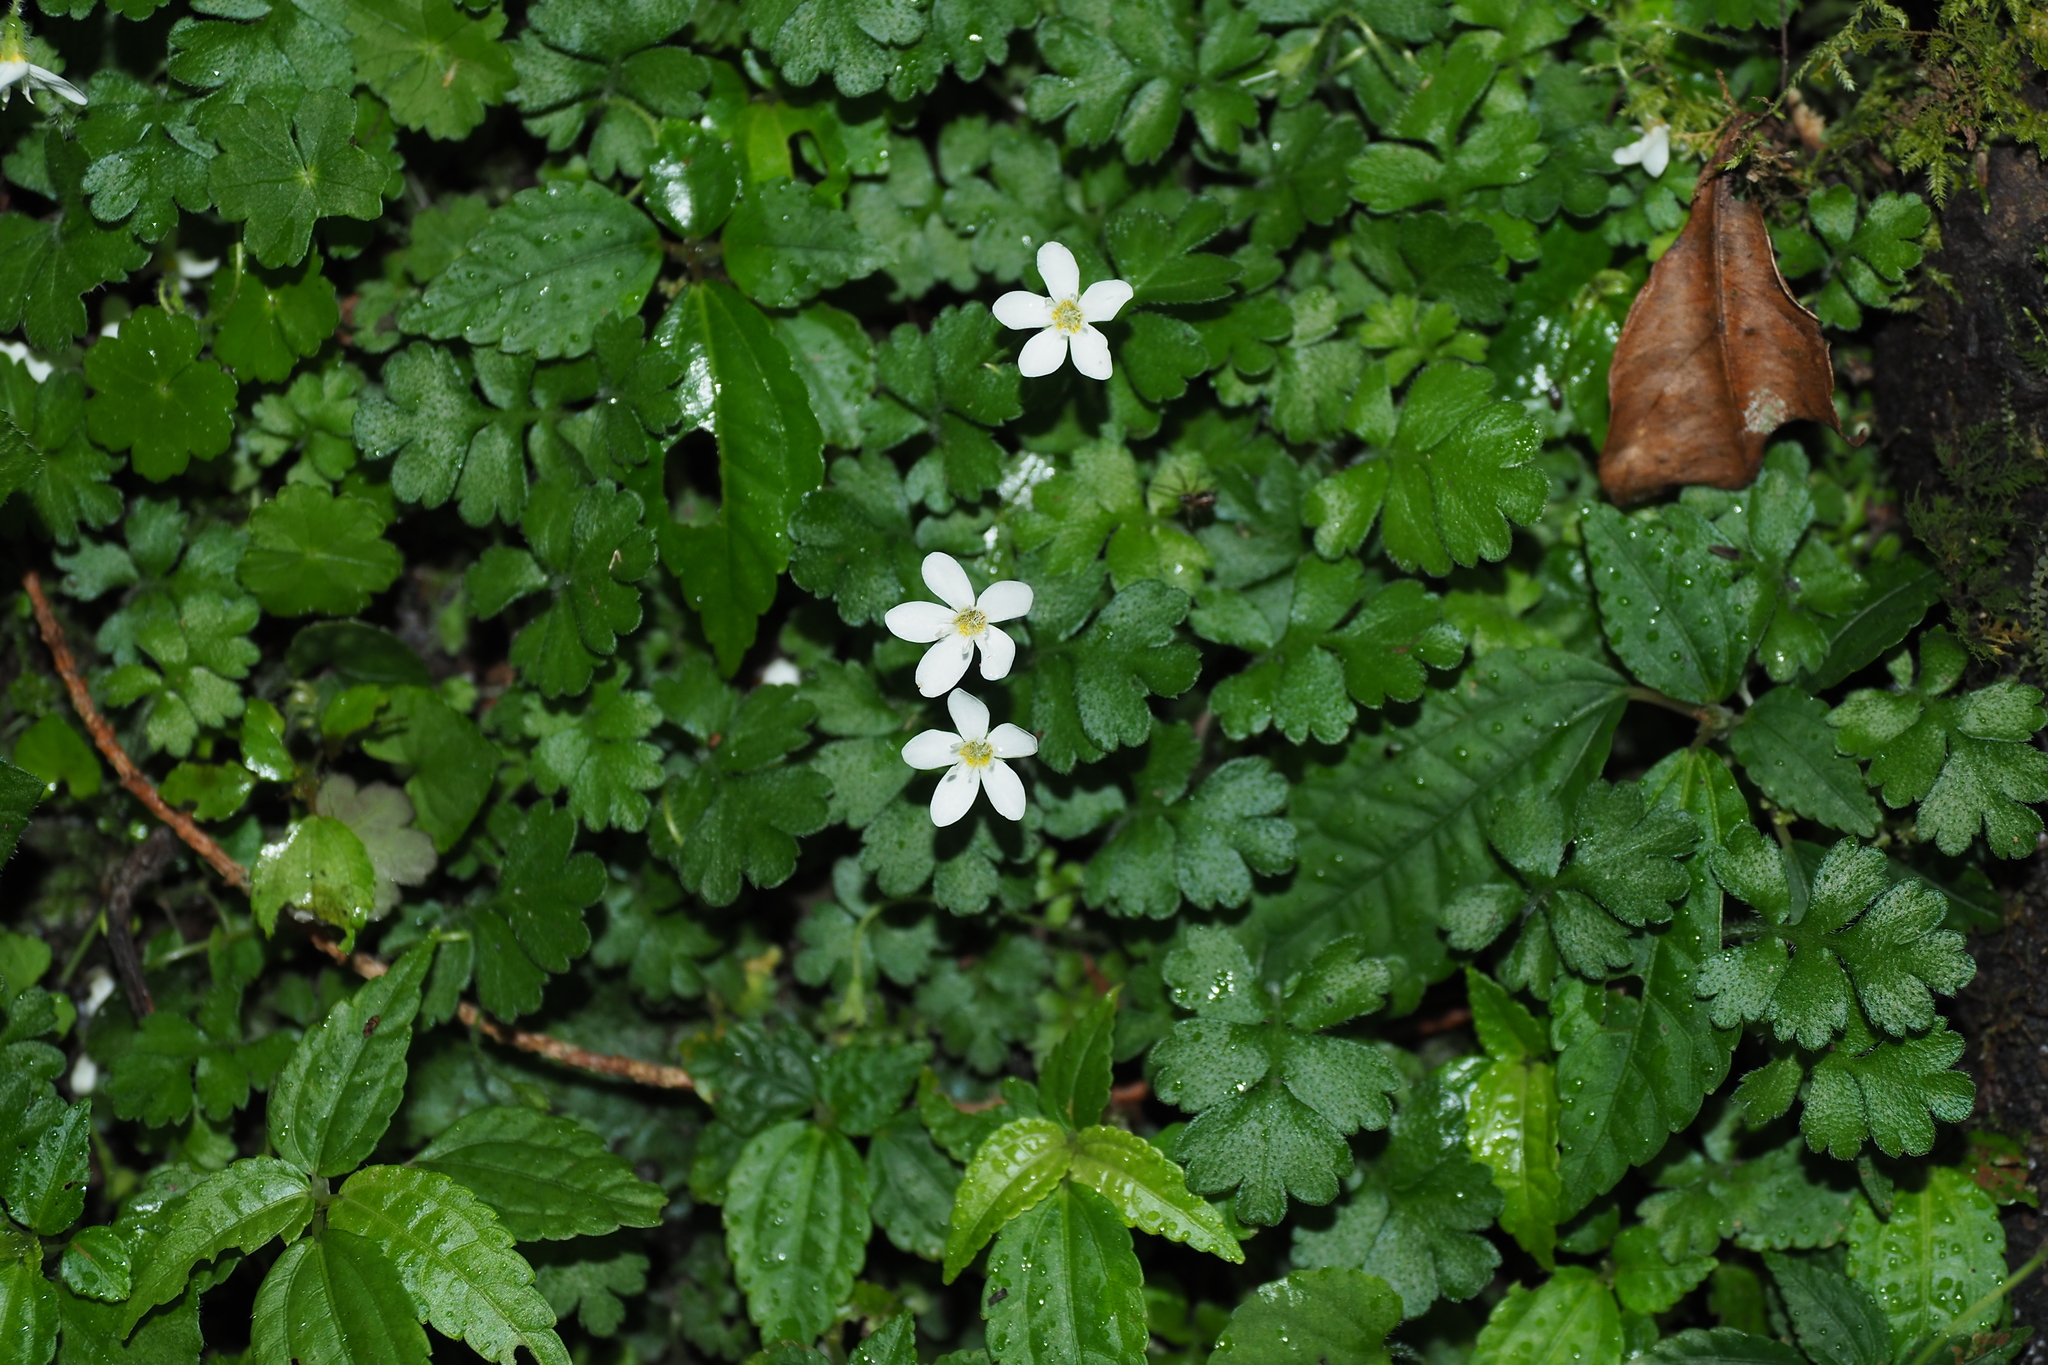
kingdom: Plantae
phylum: Tracheophyta
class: Magnoliopsida
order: Lamiales
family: Plantaginaceae
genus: Ellisiophyllum
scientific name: Ellisiophyllum pinnatum
